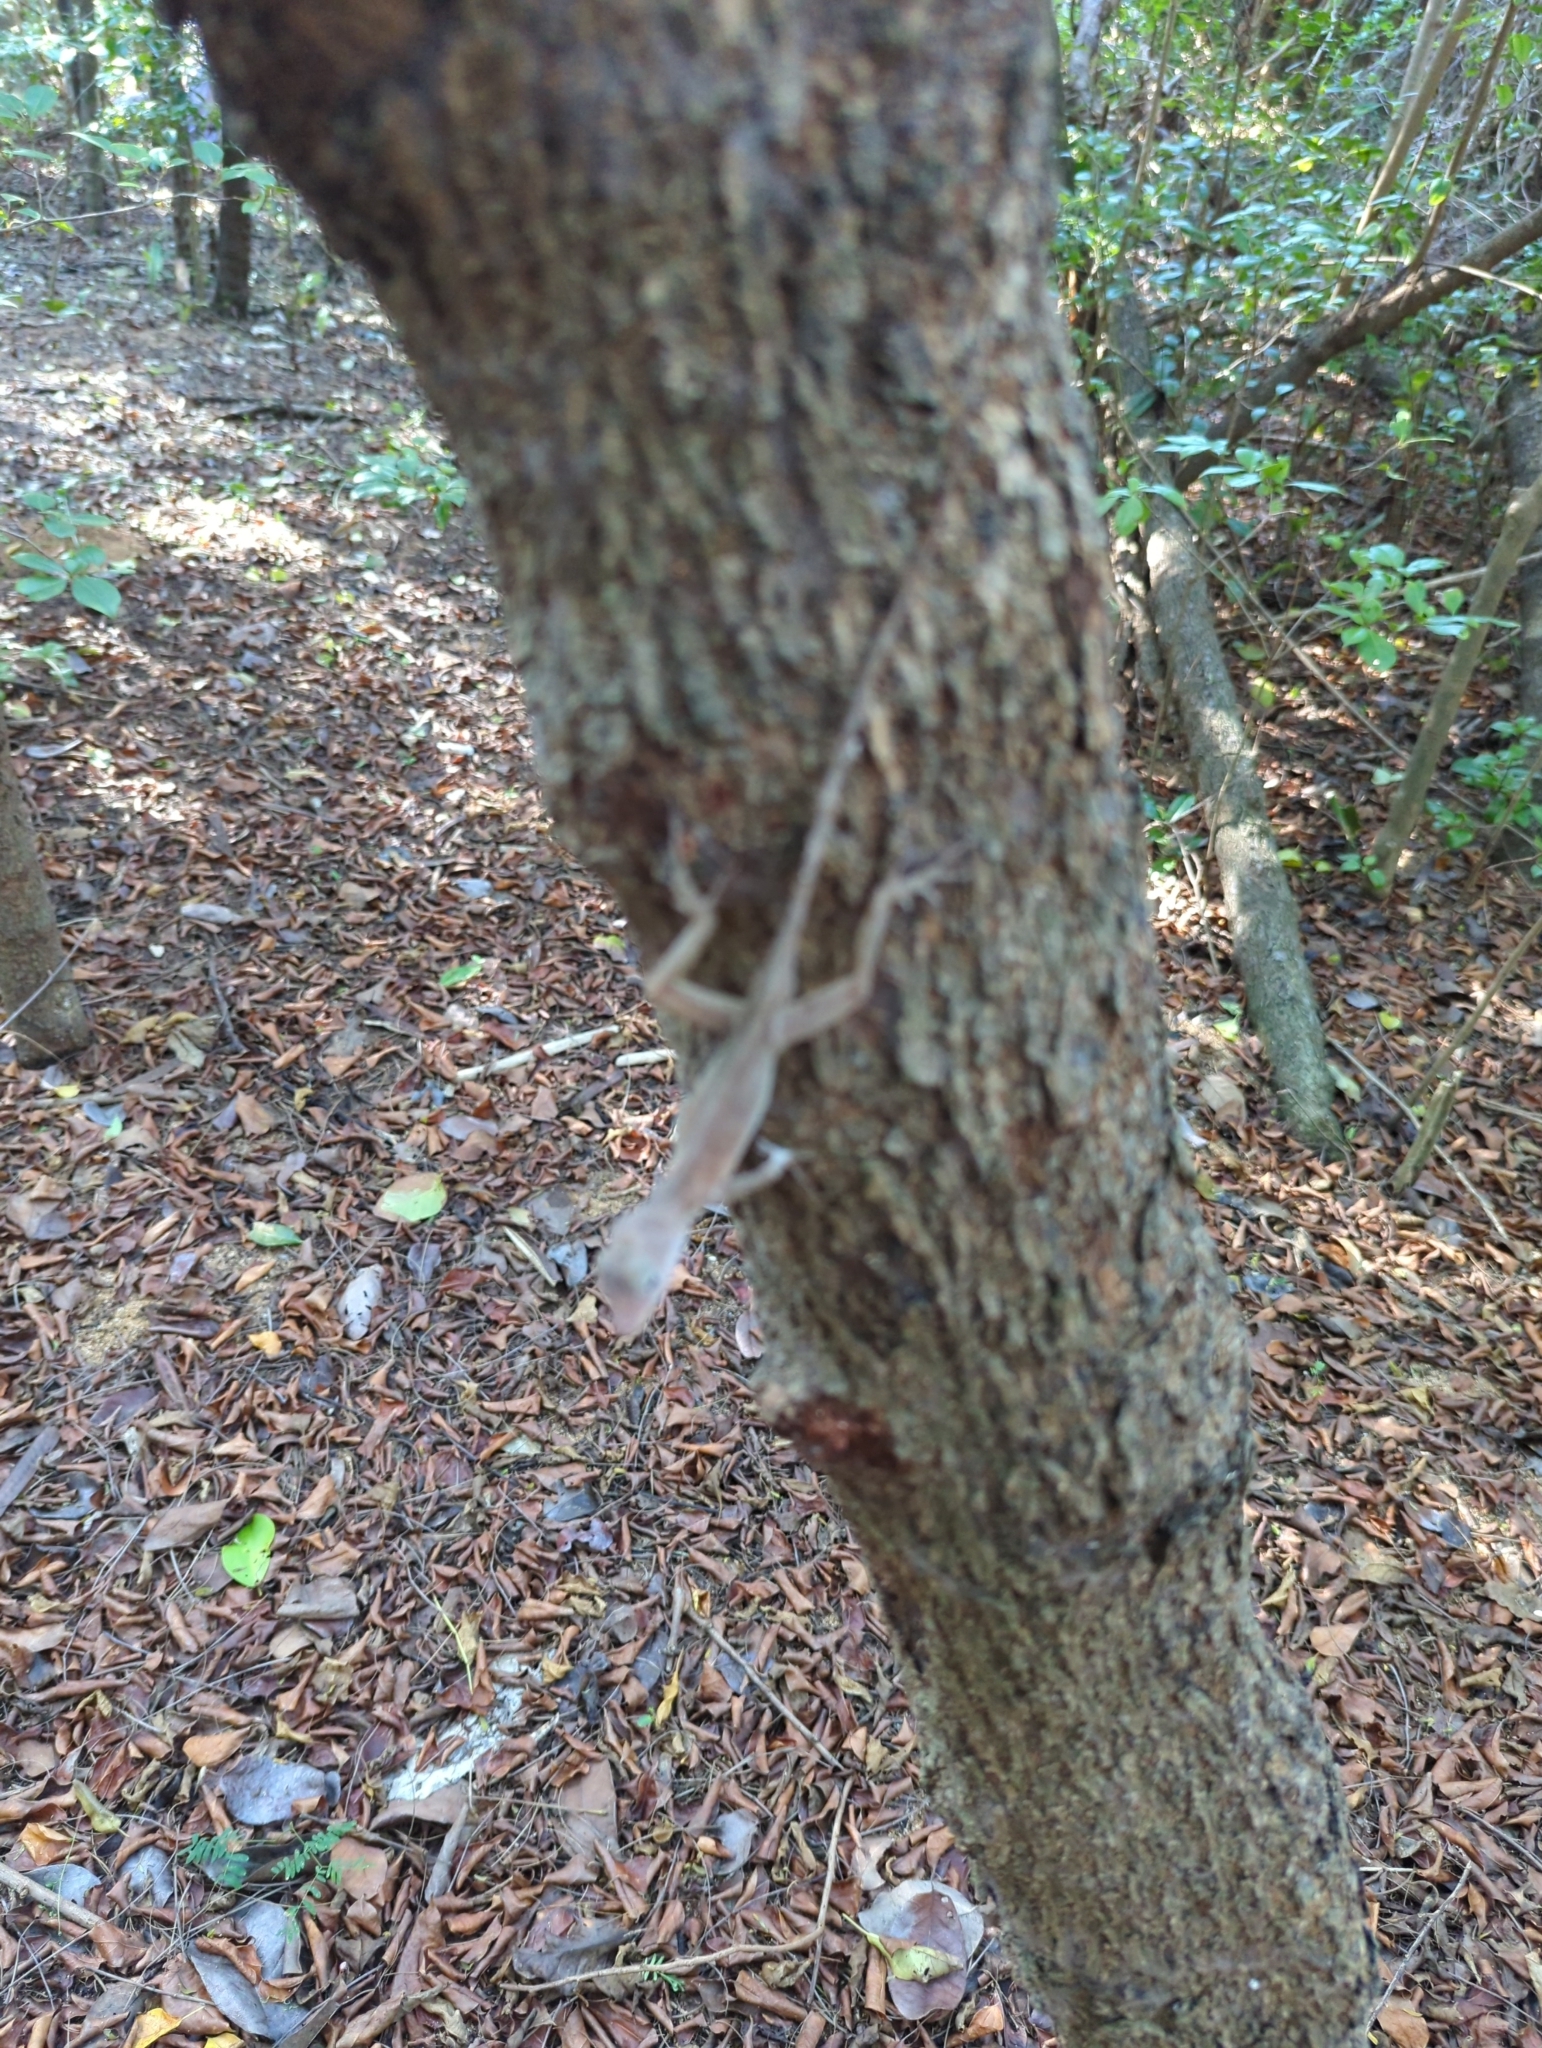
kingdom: Animalia
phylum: Chordata
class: Squamata
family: Dactyloidae
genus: Anolis
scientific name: Anolis cristatellus
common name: Crested anole
